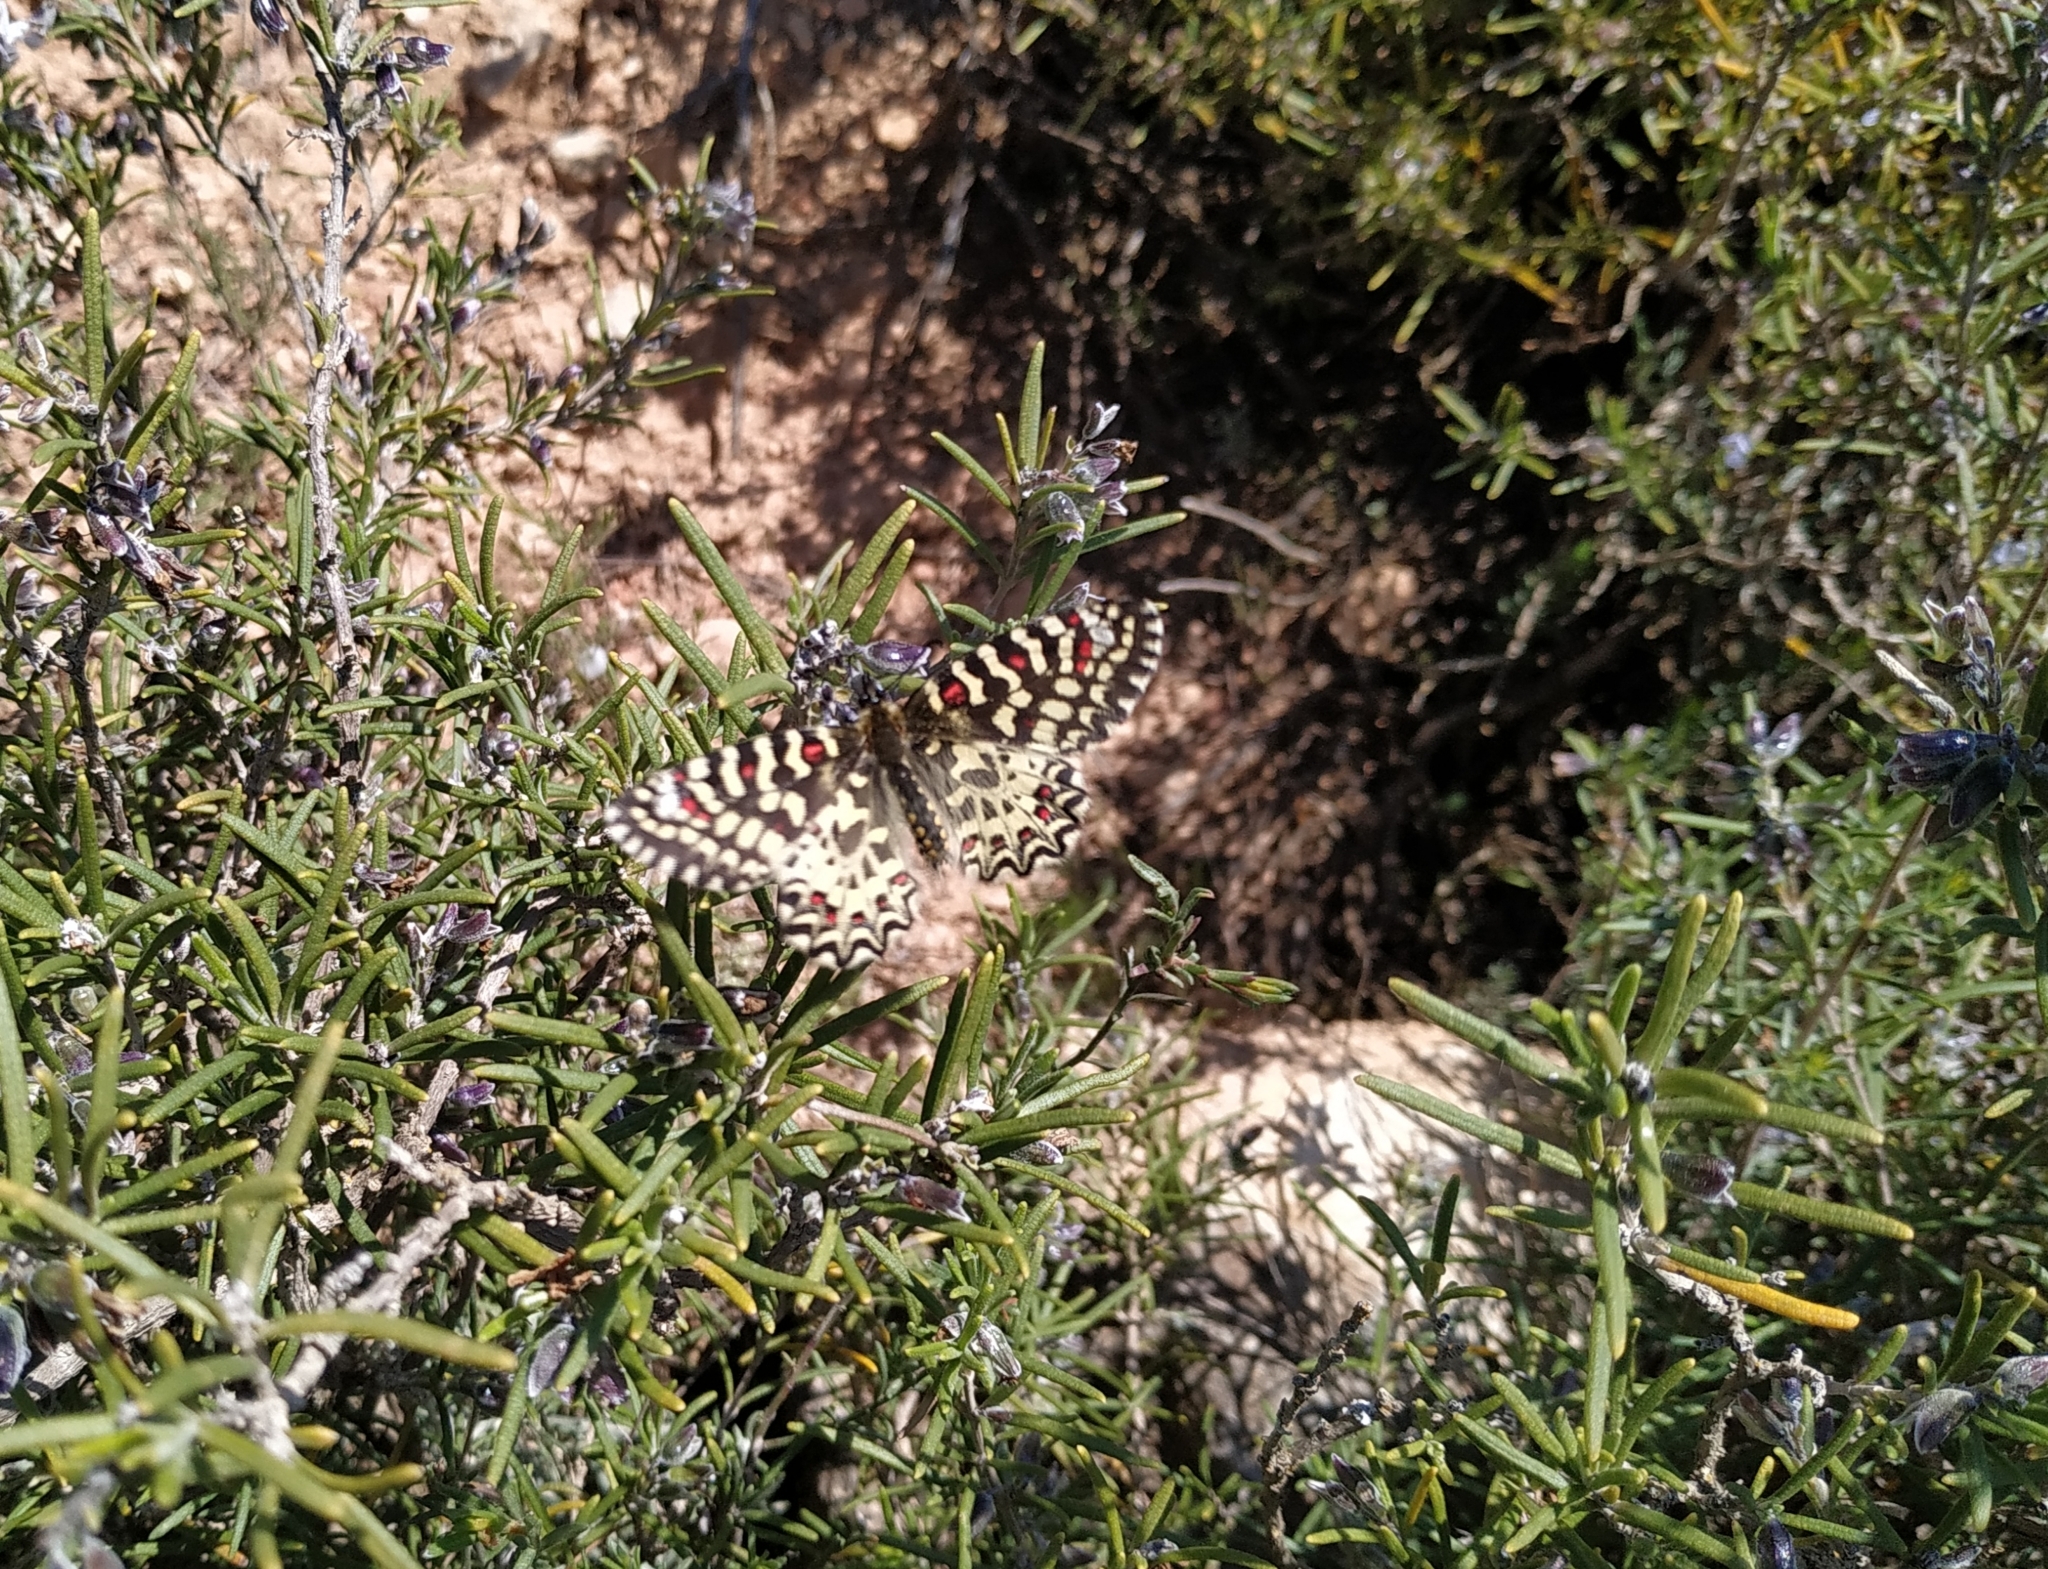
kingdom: Animalia
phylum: Arthropoda
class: Insecta
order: Lepidoptera
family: Papilionidae
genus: Zerynthia
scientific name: Zerynthia rumina
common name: Spanish festoon
